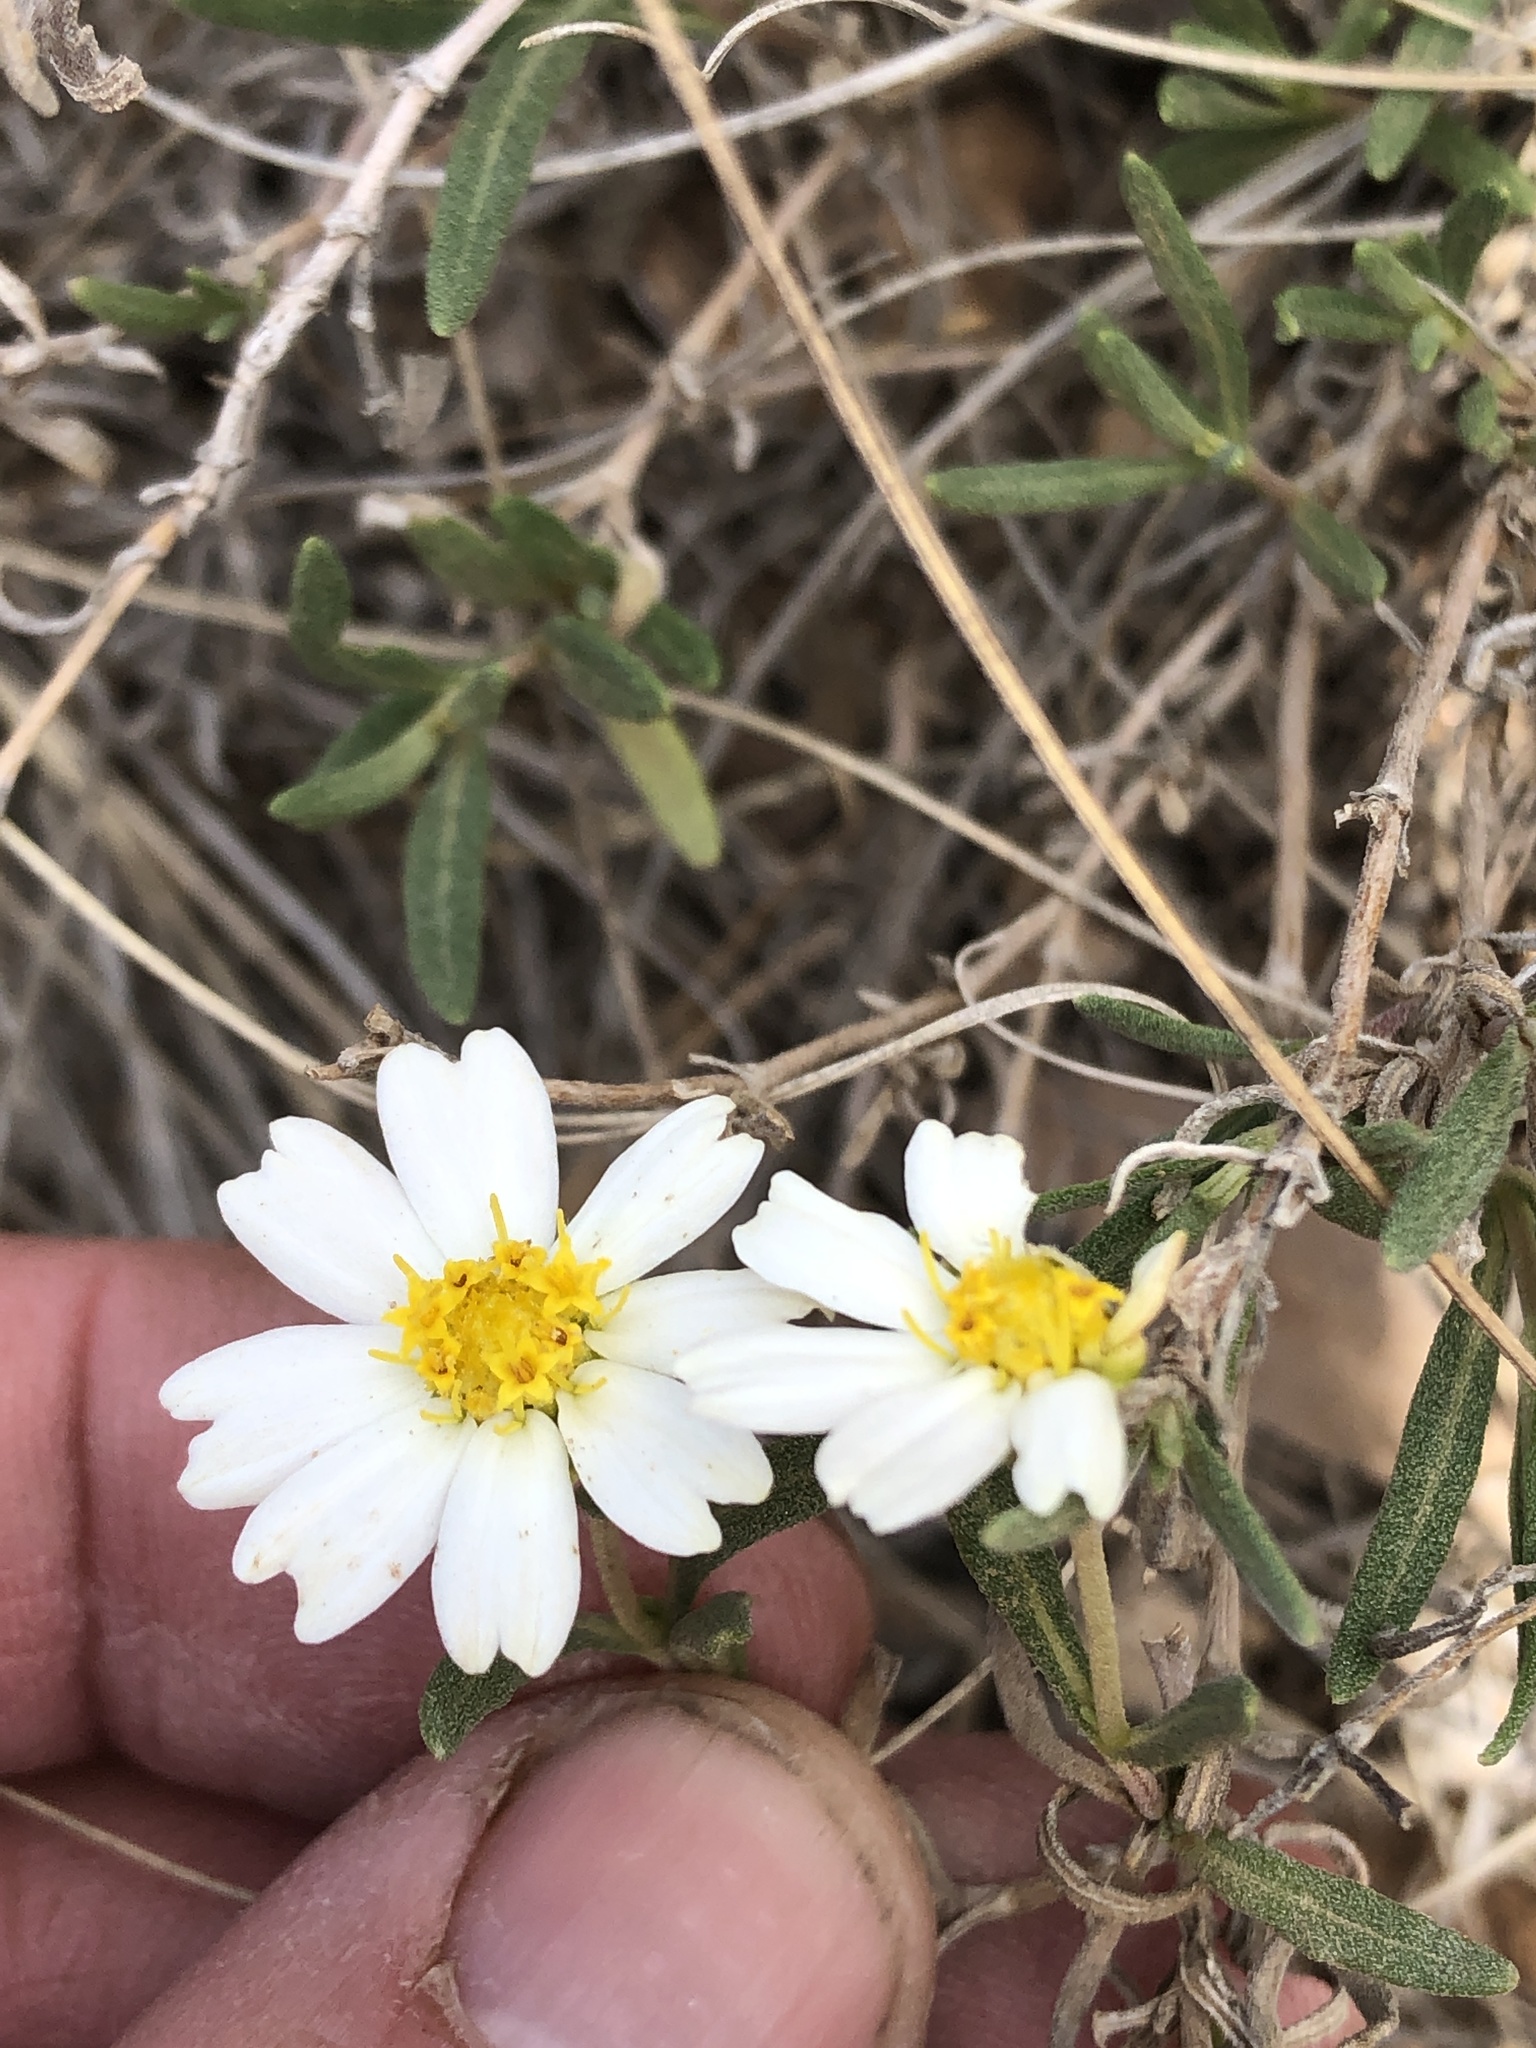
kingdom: Plantae
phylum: Tracheophyta
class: Magnoliopsida
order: Asterales
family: Asteraceae
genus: Melampodium
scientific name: Melampodium leucanthum
